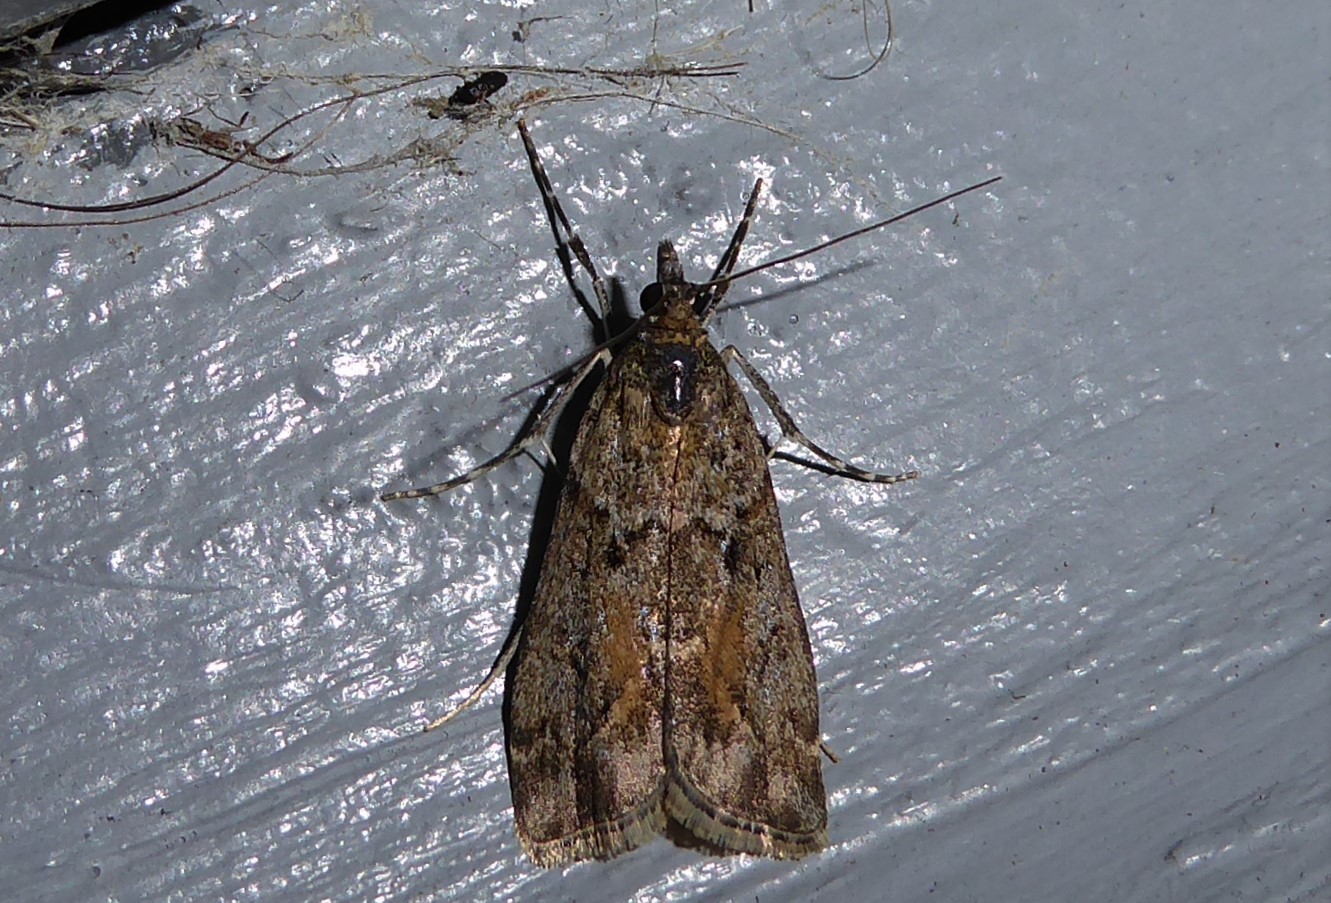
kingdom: Animalia
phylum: Arthropoda
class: Insecta
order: Lepidoptera
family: Crambidae
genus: Eudonia
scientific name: Eudonia submarginalis
